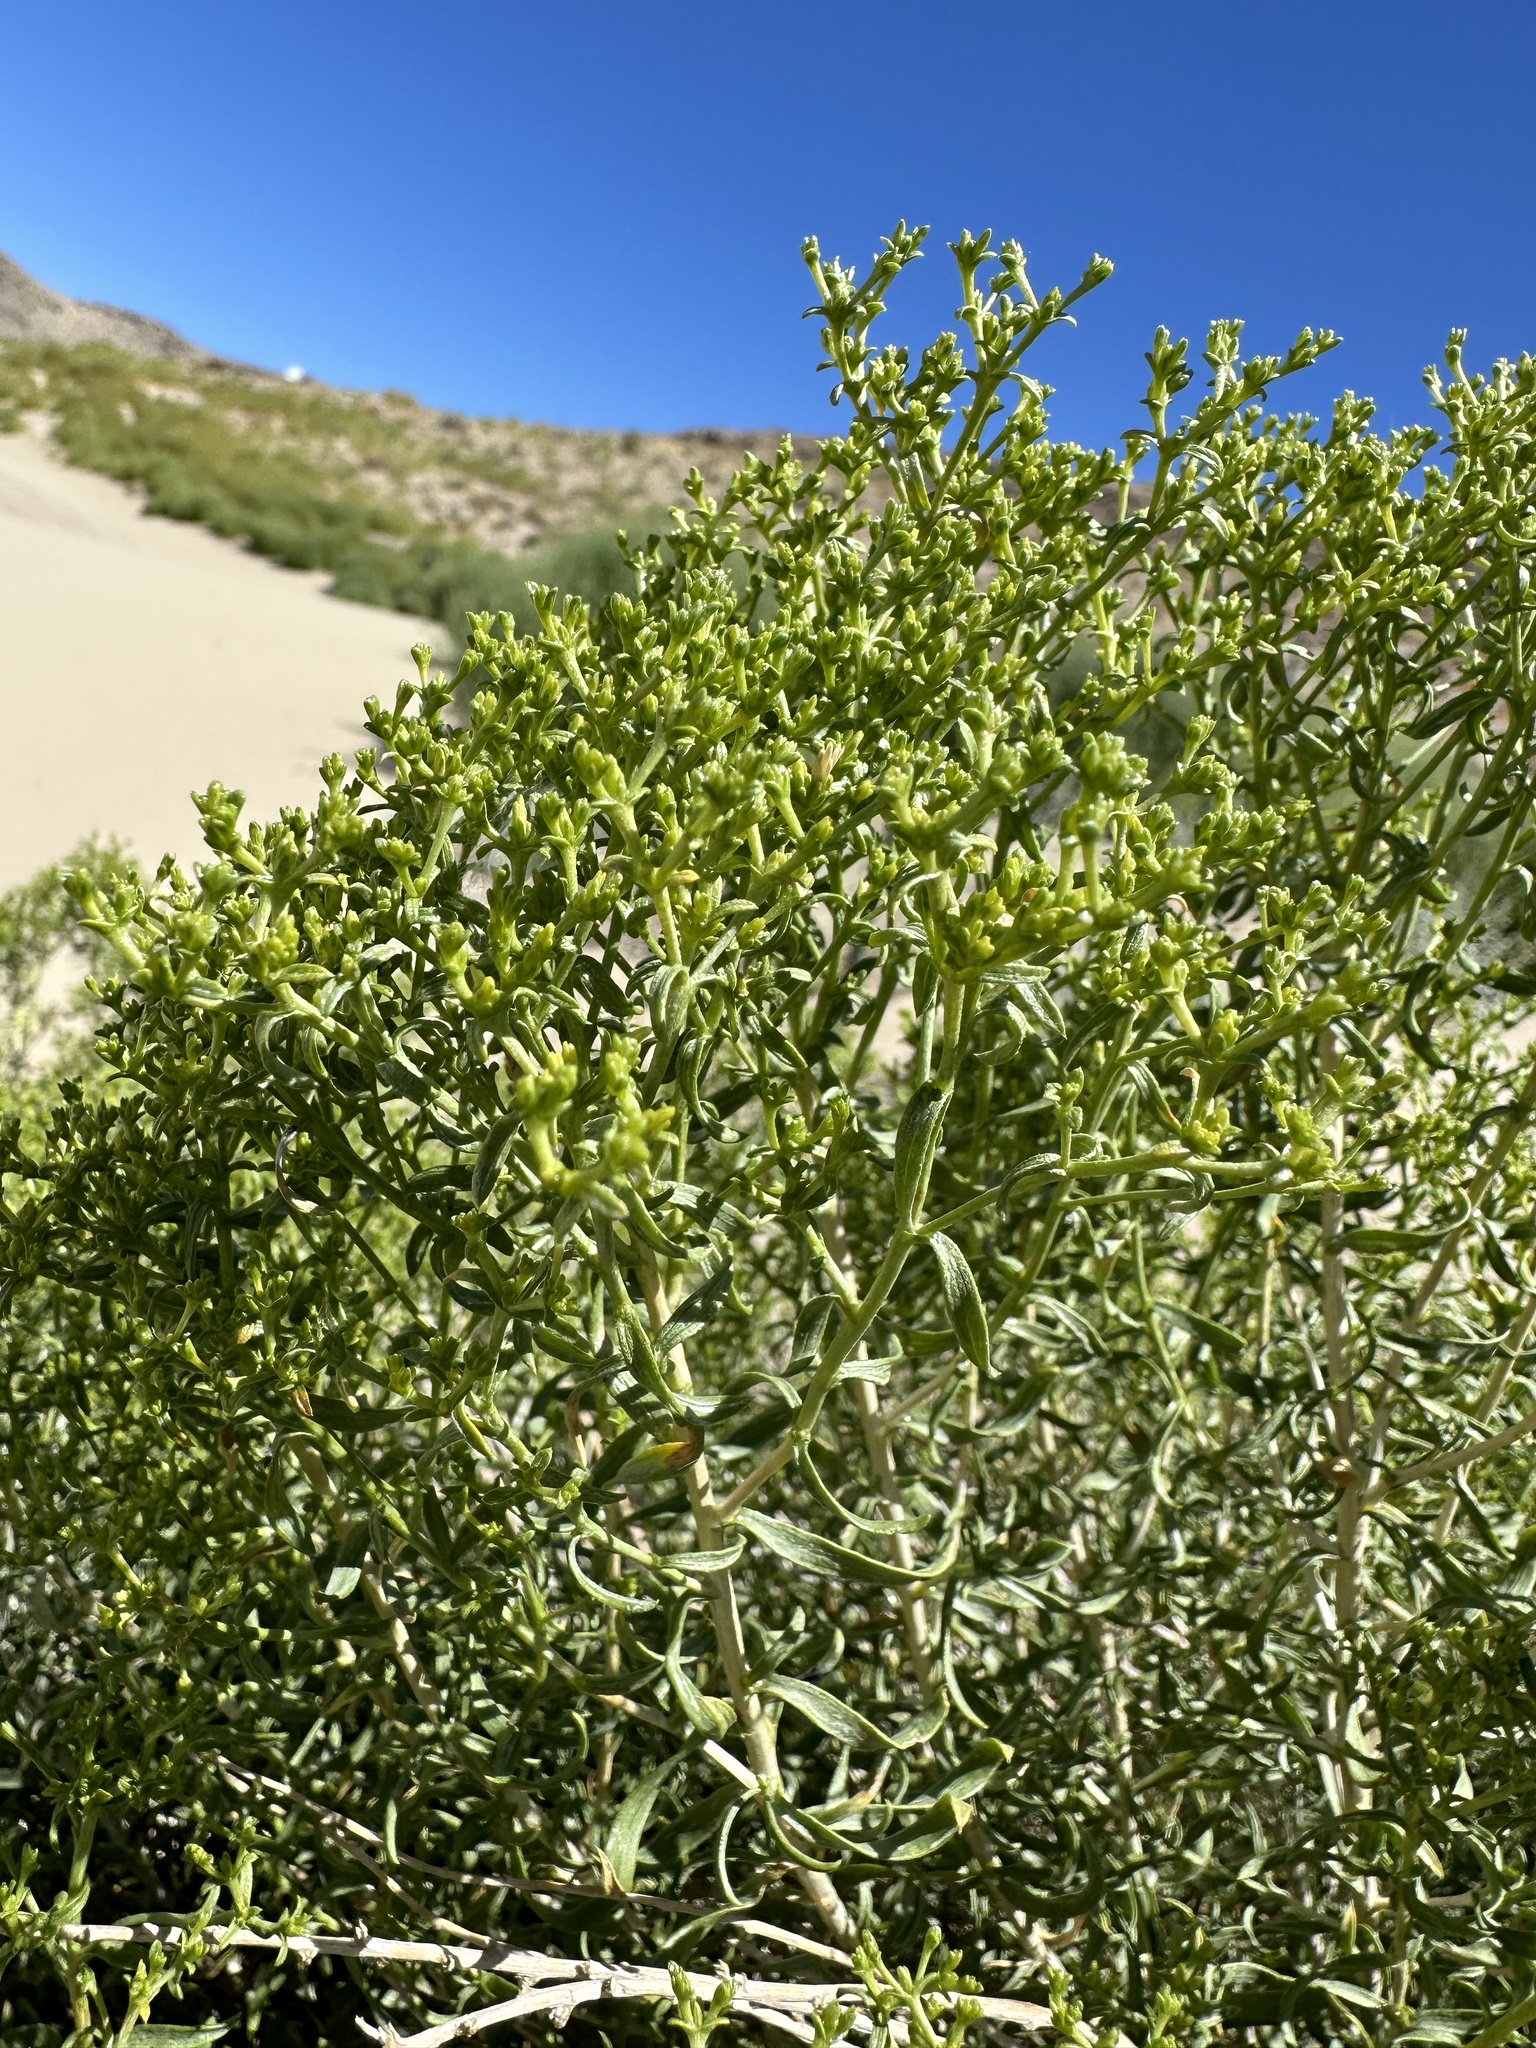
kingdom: Plantae
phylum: Tracheophyta
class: Magnoliopsida
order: Asterales
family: Asteraceae
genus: Chrysothamnus
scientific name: Chrysothamnus viscidiflorus
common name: Yellow rabbitbrush
